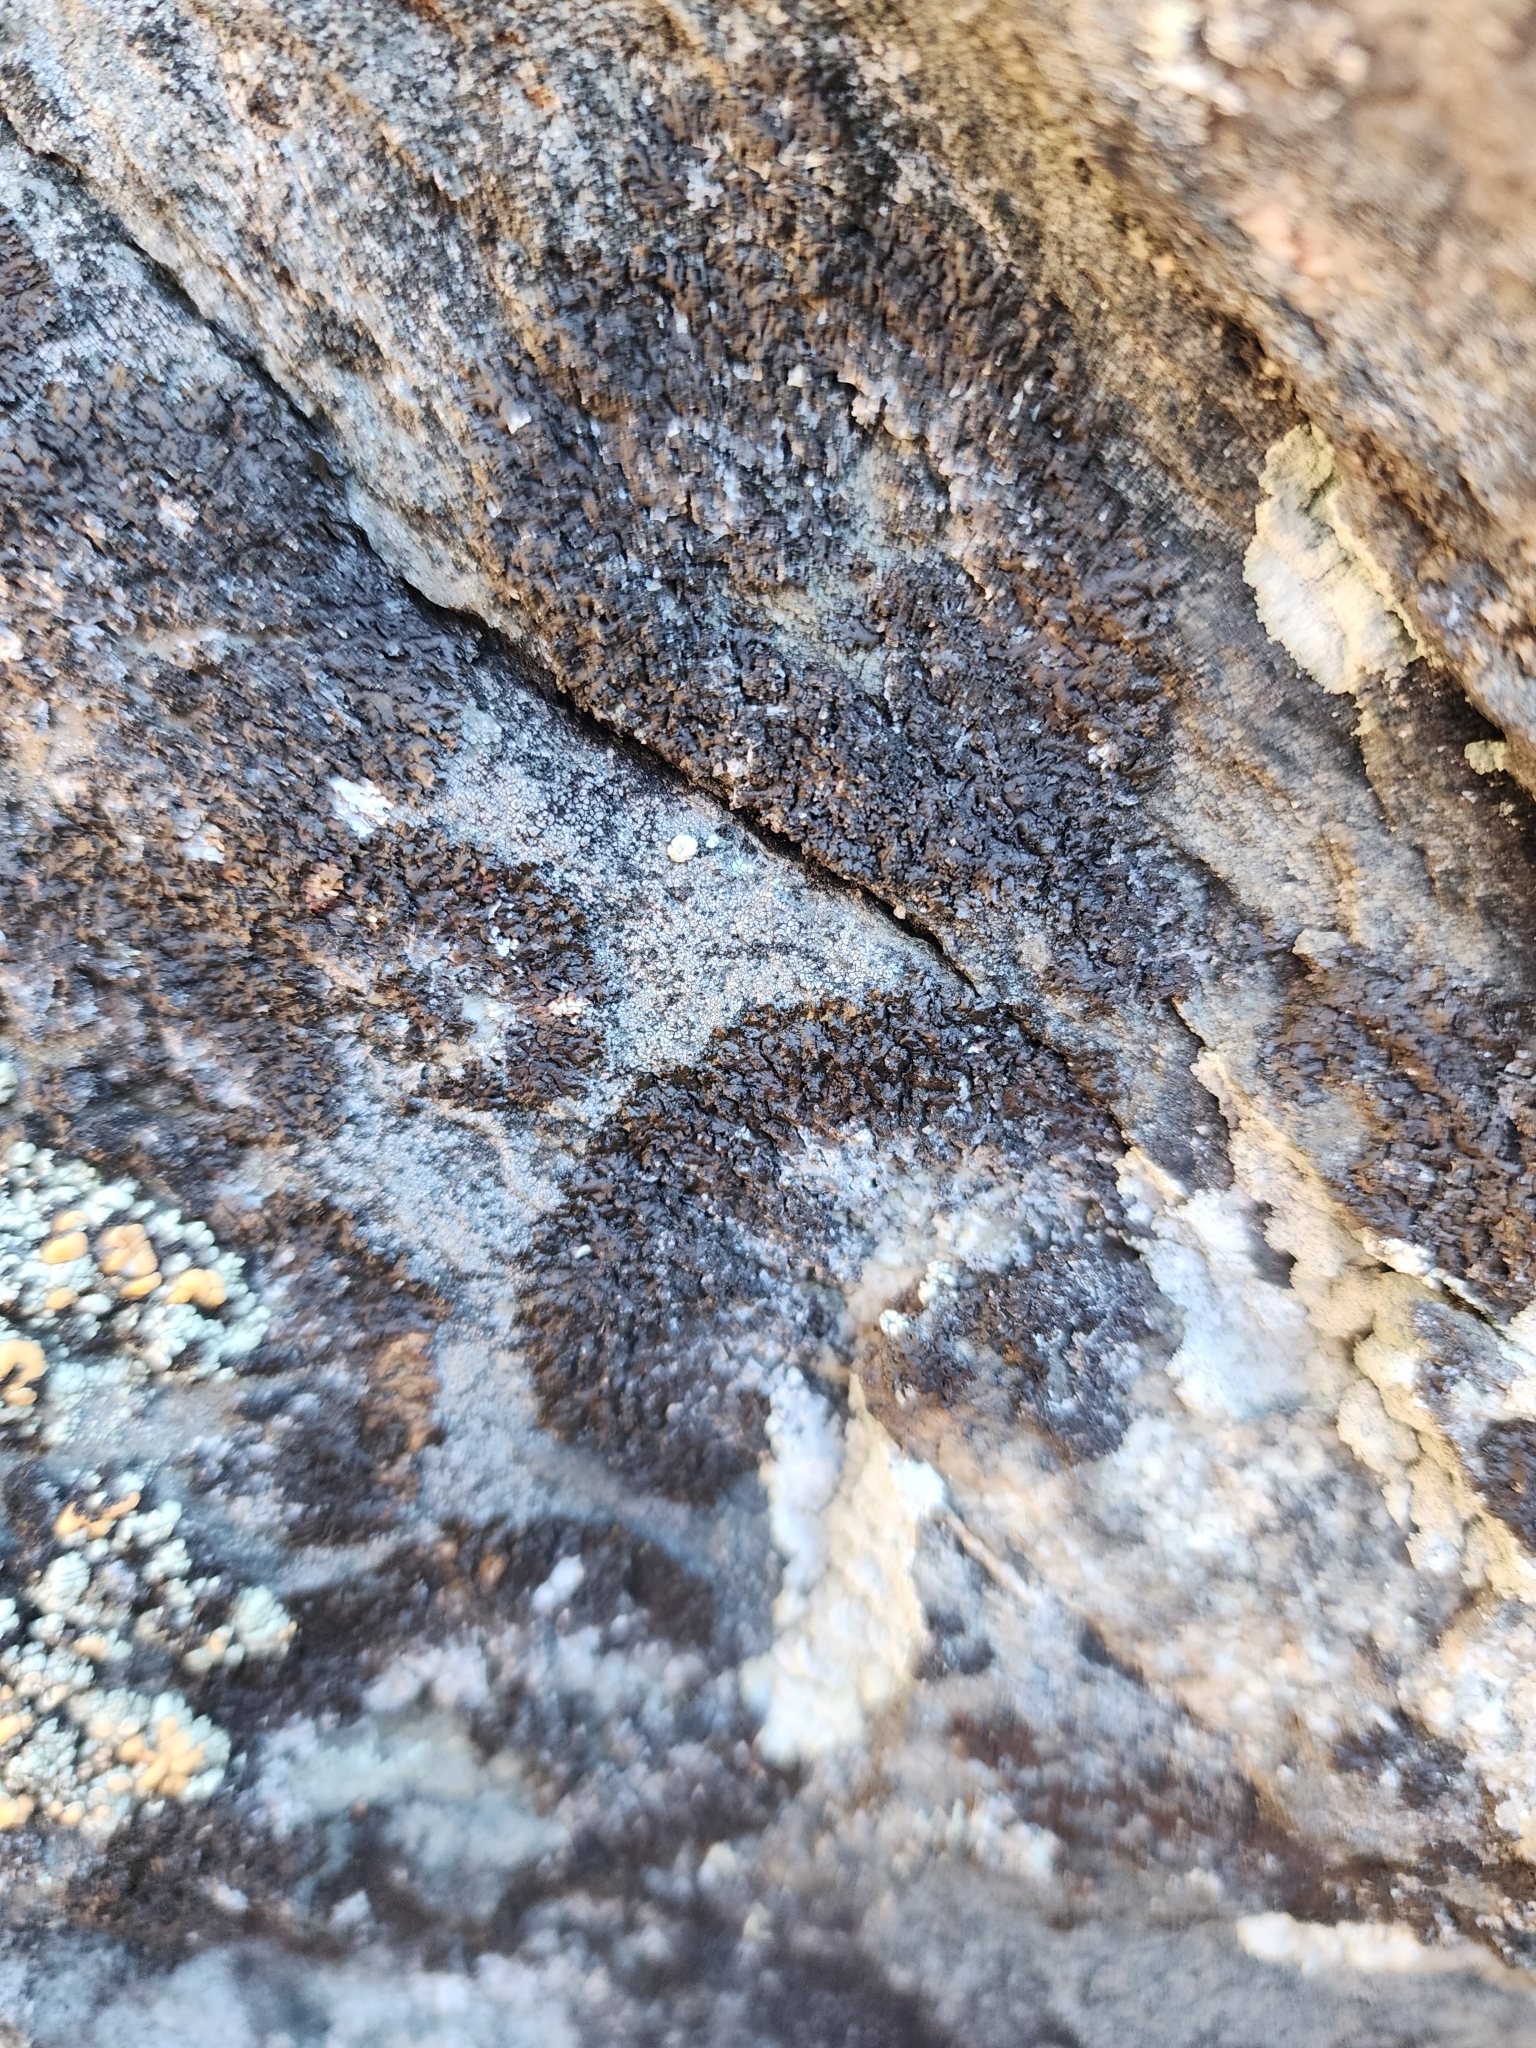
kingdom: Fungi
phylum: Ascomycota
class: Lecanoromycetes
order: Lecanorales
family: Parmeliaceae
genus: Montanelia
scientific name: Montanelia saximontana
